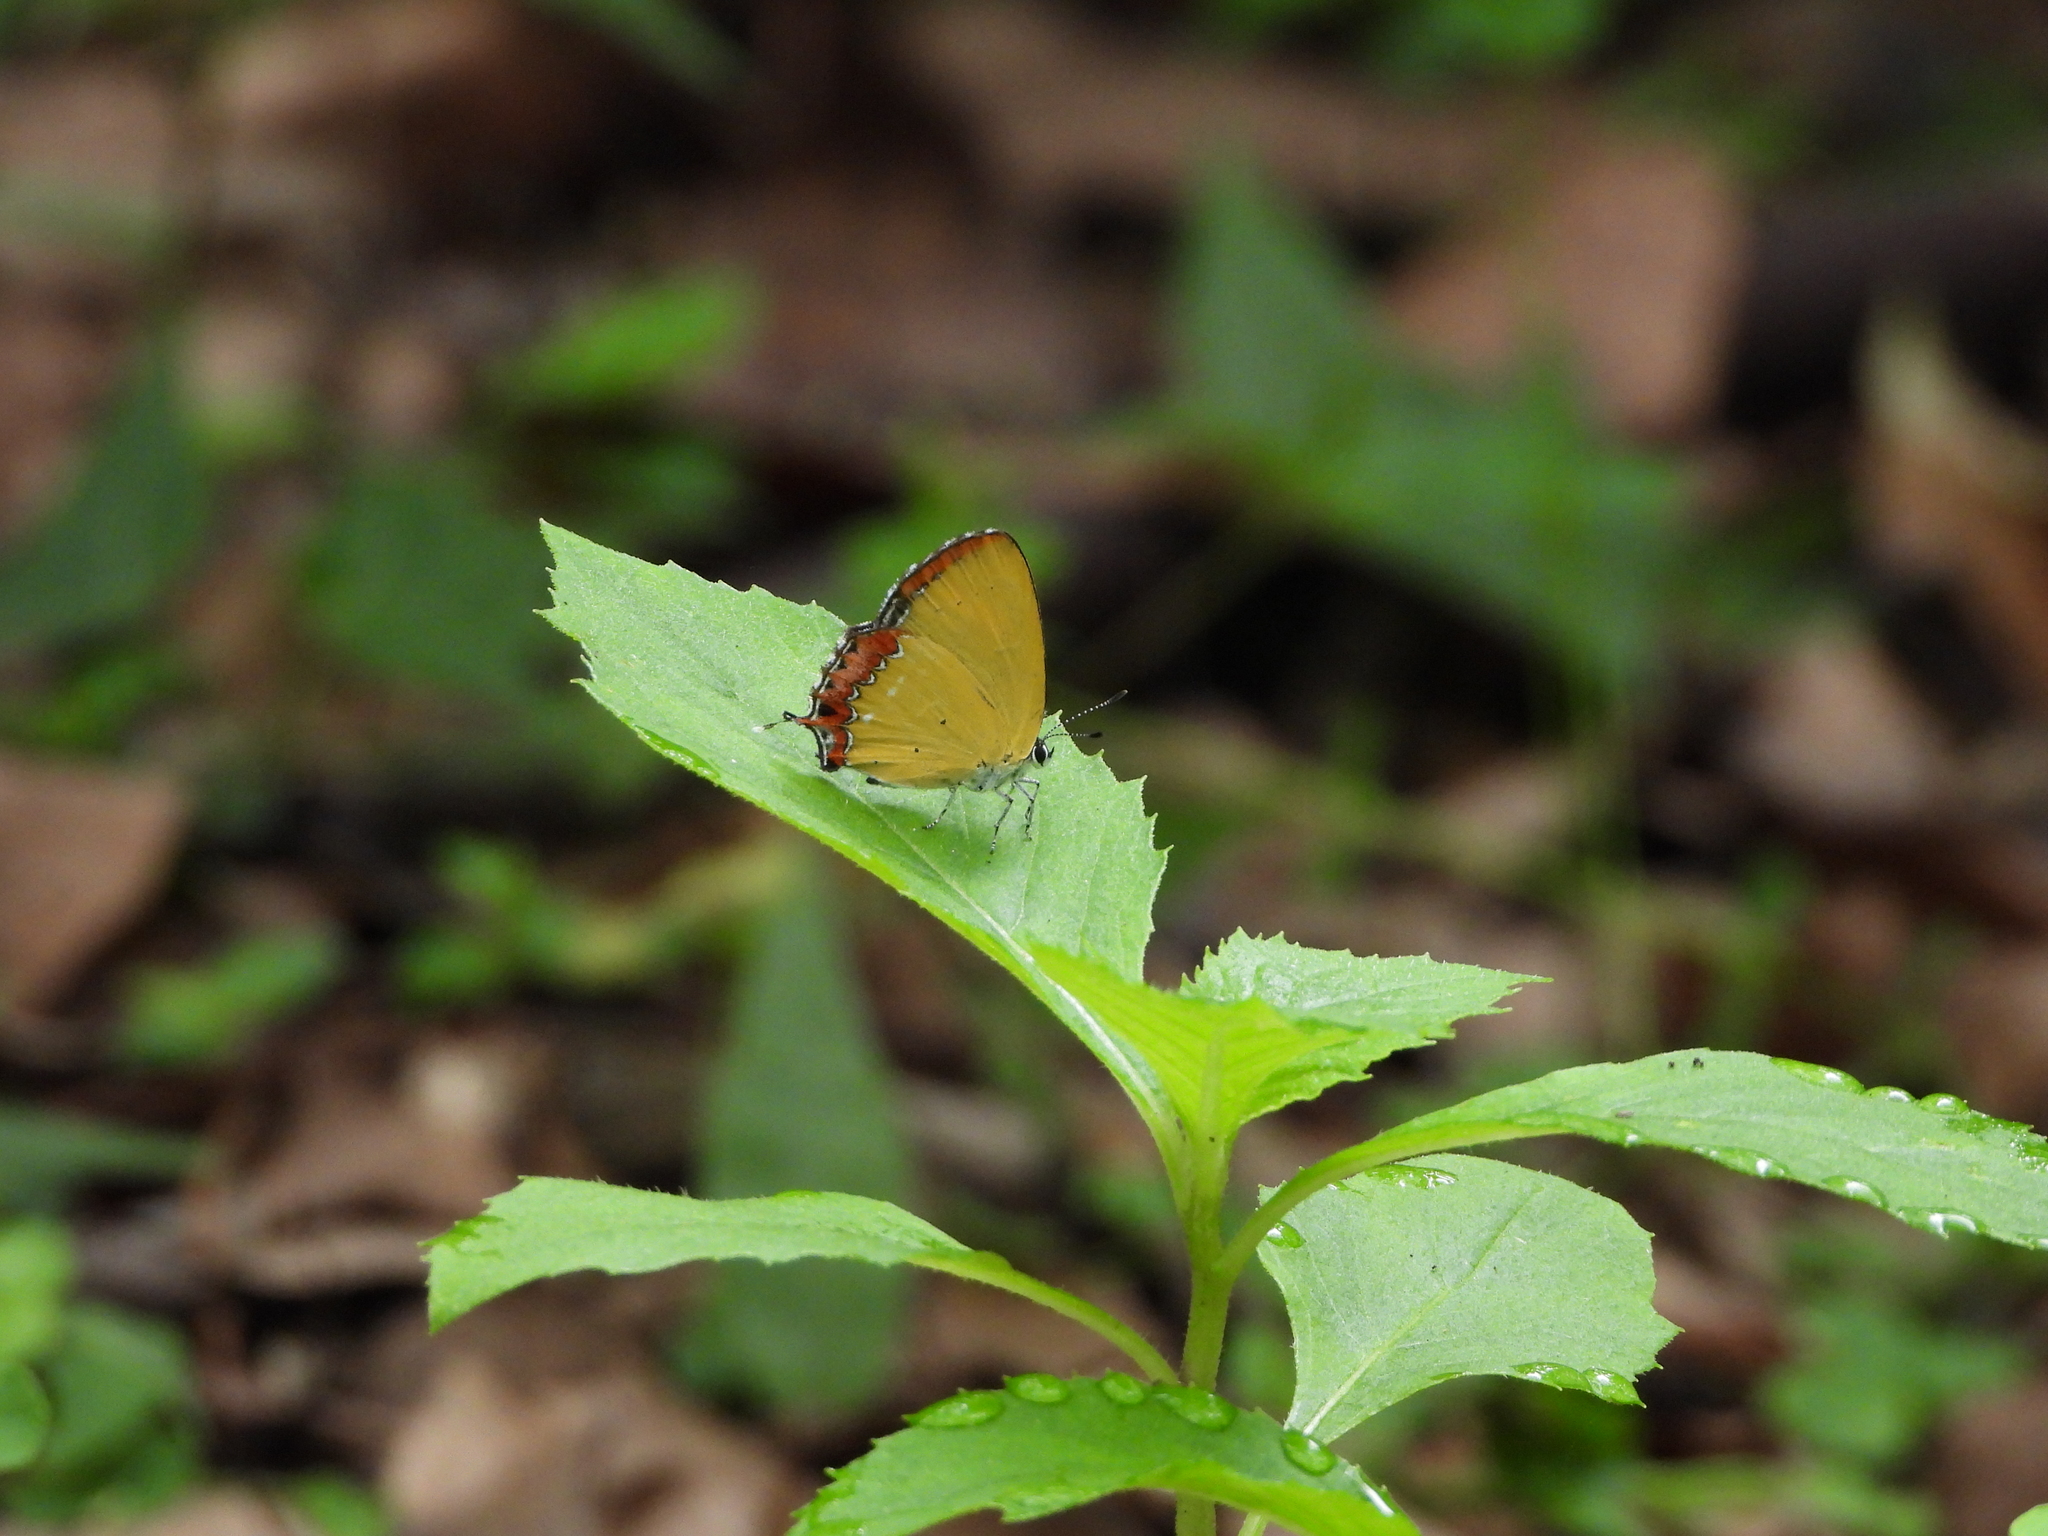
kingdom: Animalia
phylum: Arthropoda
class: Insecta
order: Lepidoptera
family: Lycaenidae
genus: Heliophorus
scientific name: Heliophorus ila
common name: Restricted purple sapphire
